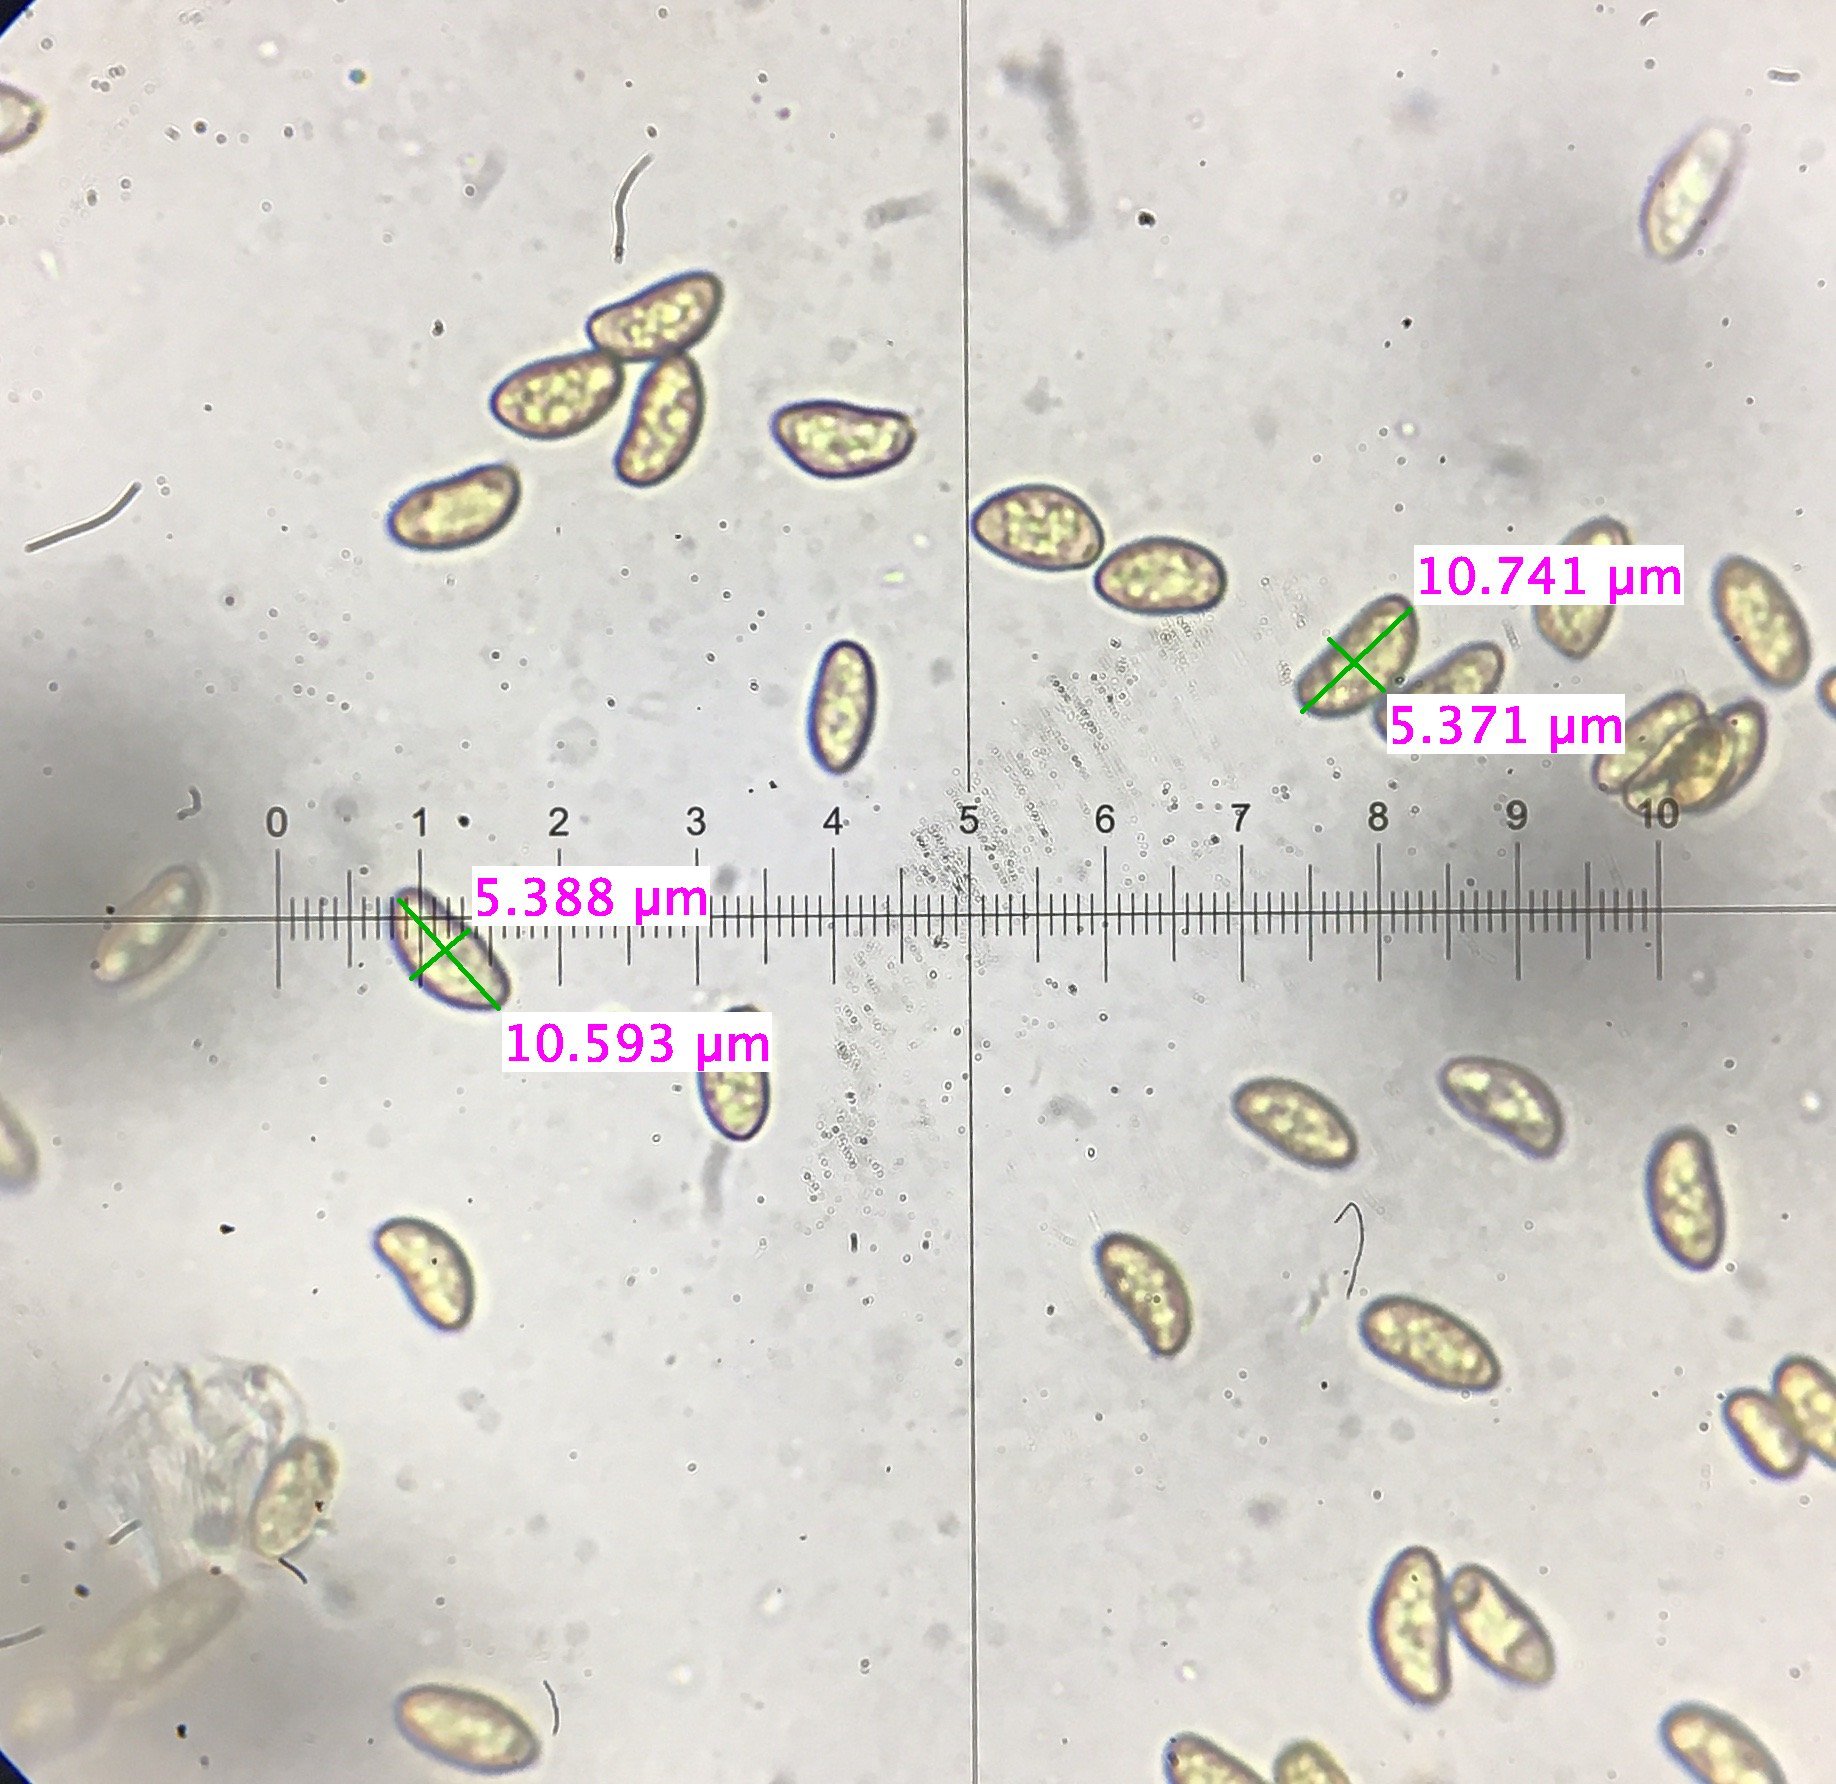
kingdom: Fungi
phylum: Basidiomycota
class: Agaricomycetes
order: Agaricales
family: Inocybaceae
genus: Pseudosperma
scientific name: Pseudosperma friabile
